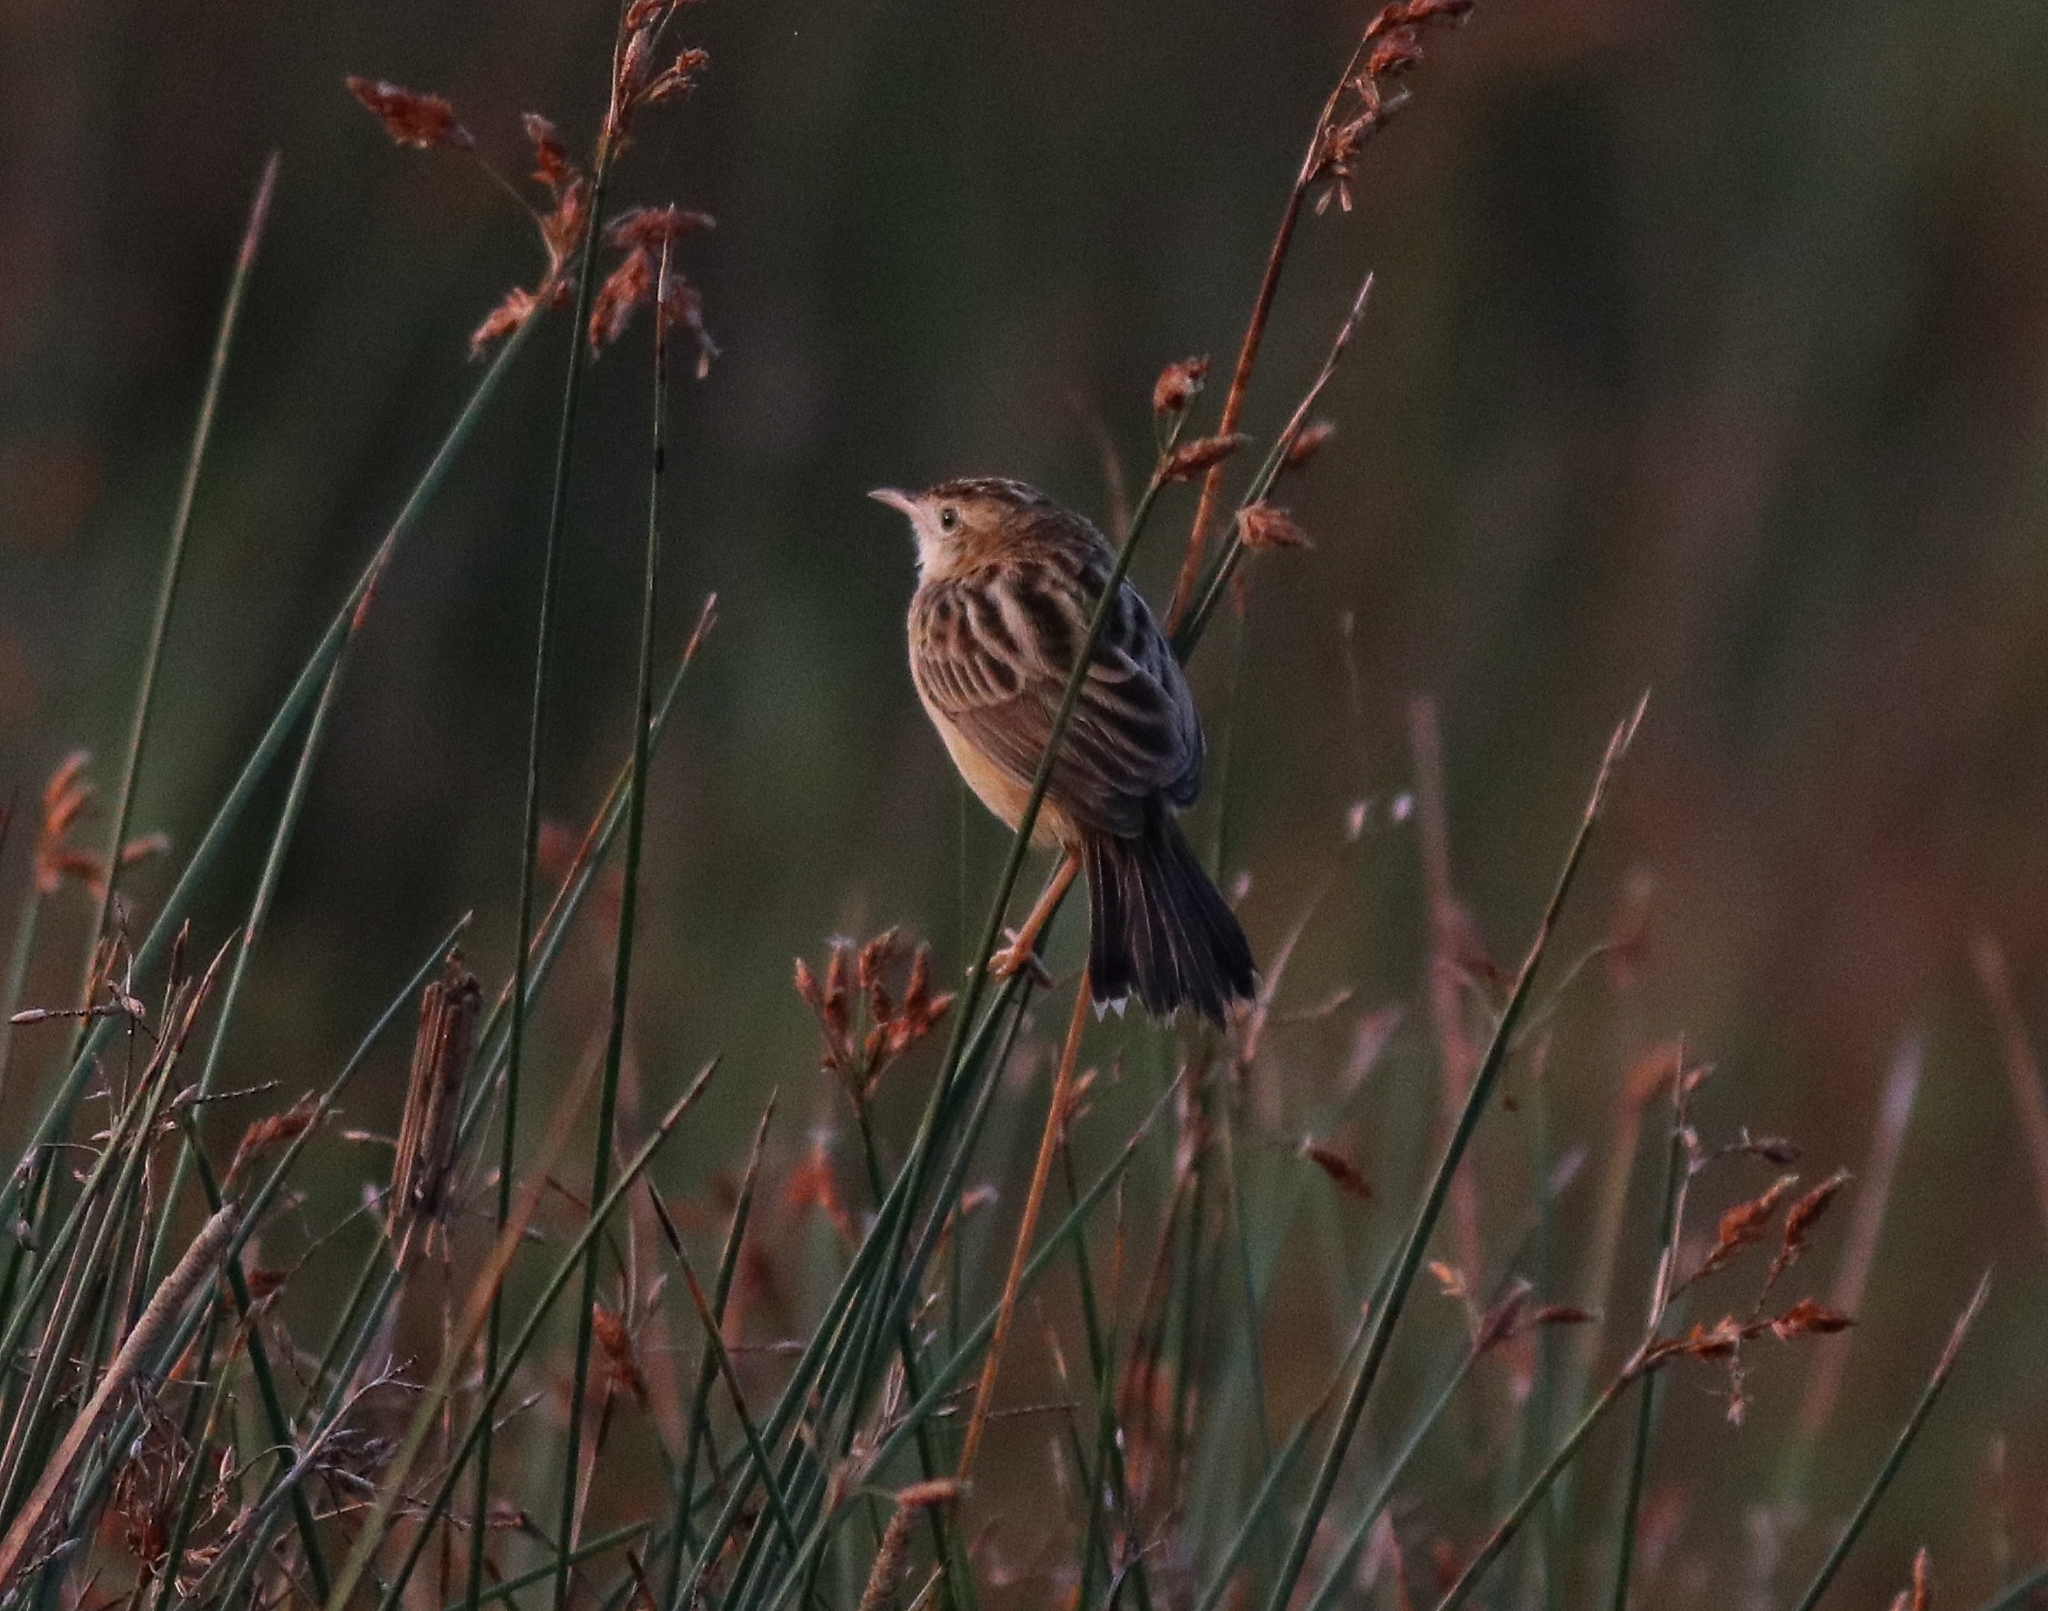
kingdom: Animalia
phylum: Chordata
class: Aves
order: Passeriformes
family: Cisticolidae
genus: Cisticola
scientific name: Cisticola juncidis
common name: Zitting cisticola
